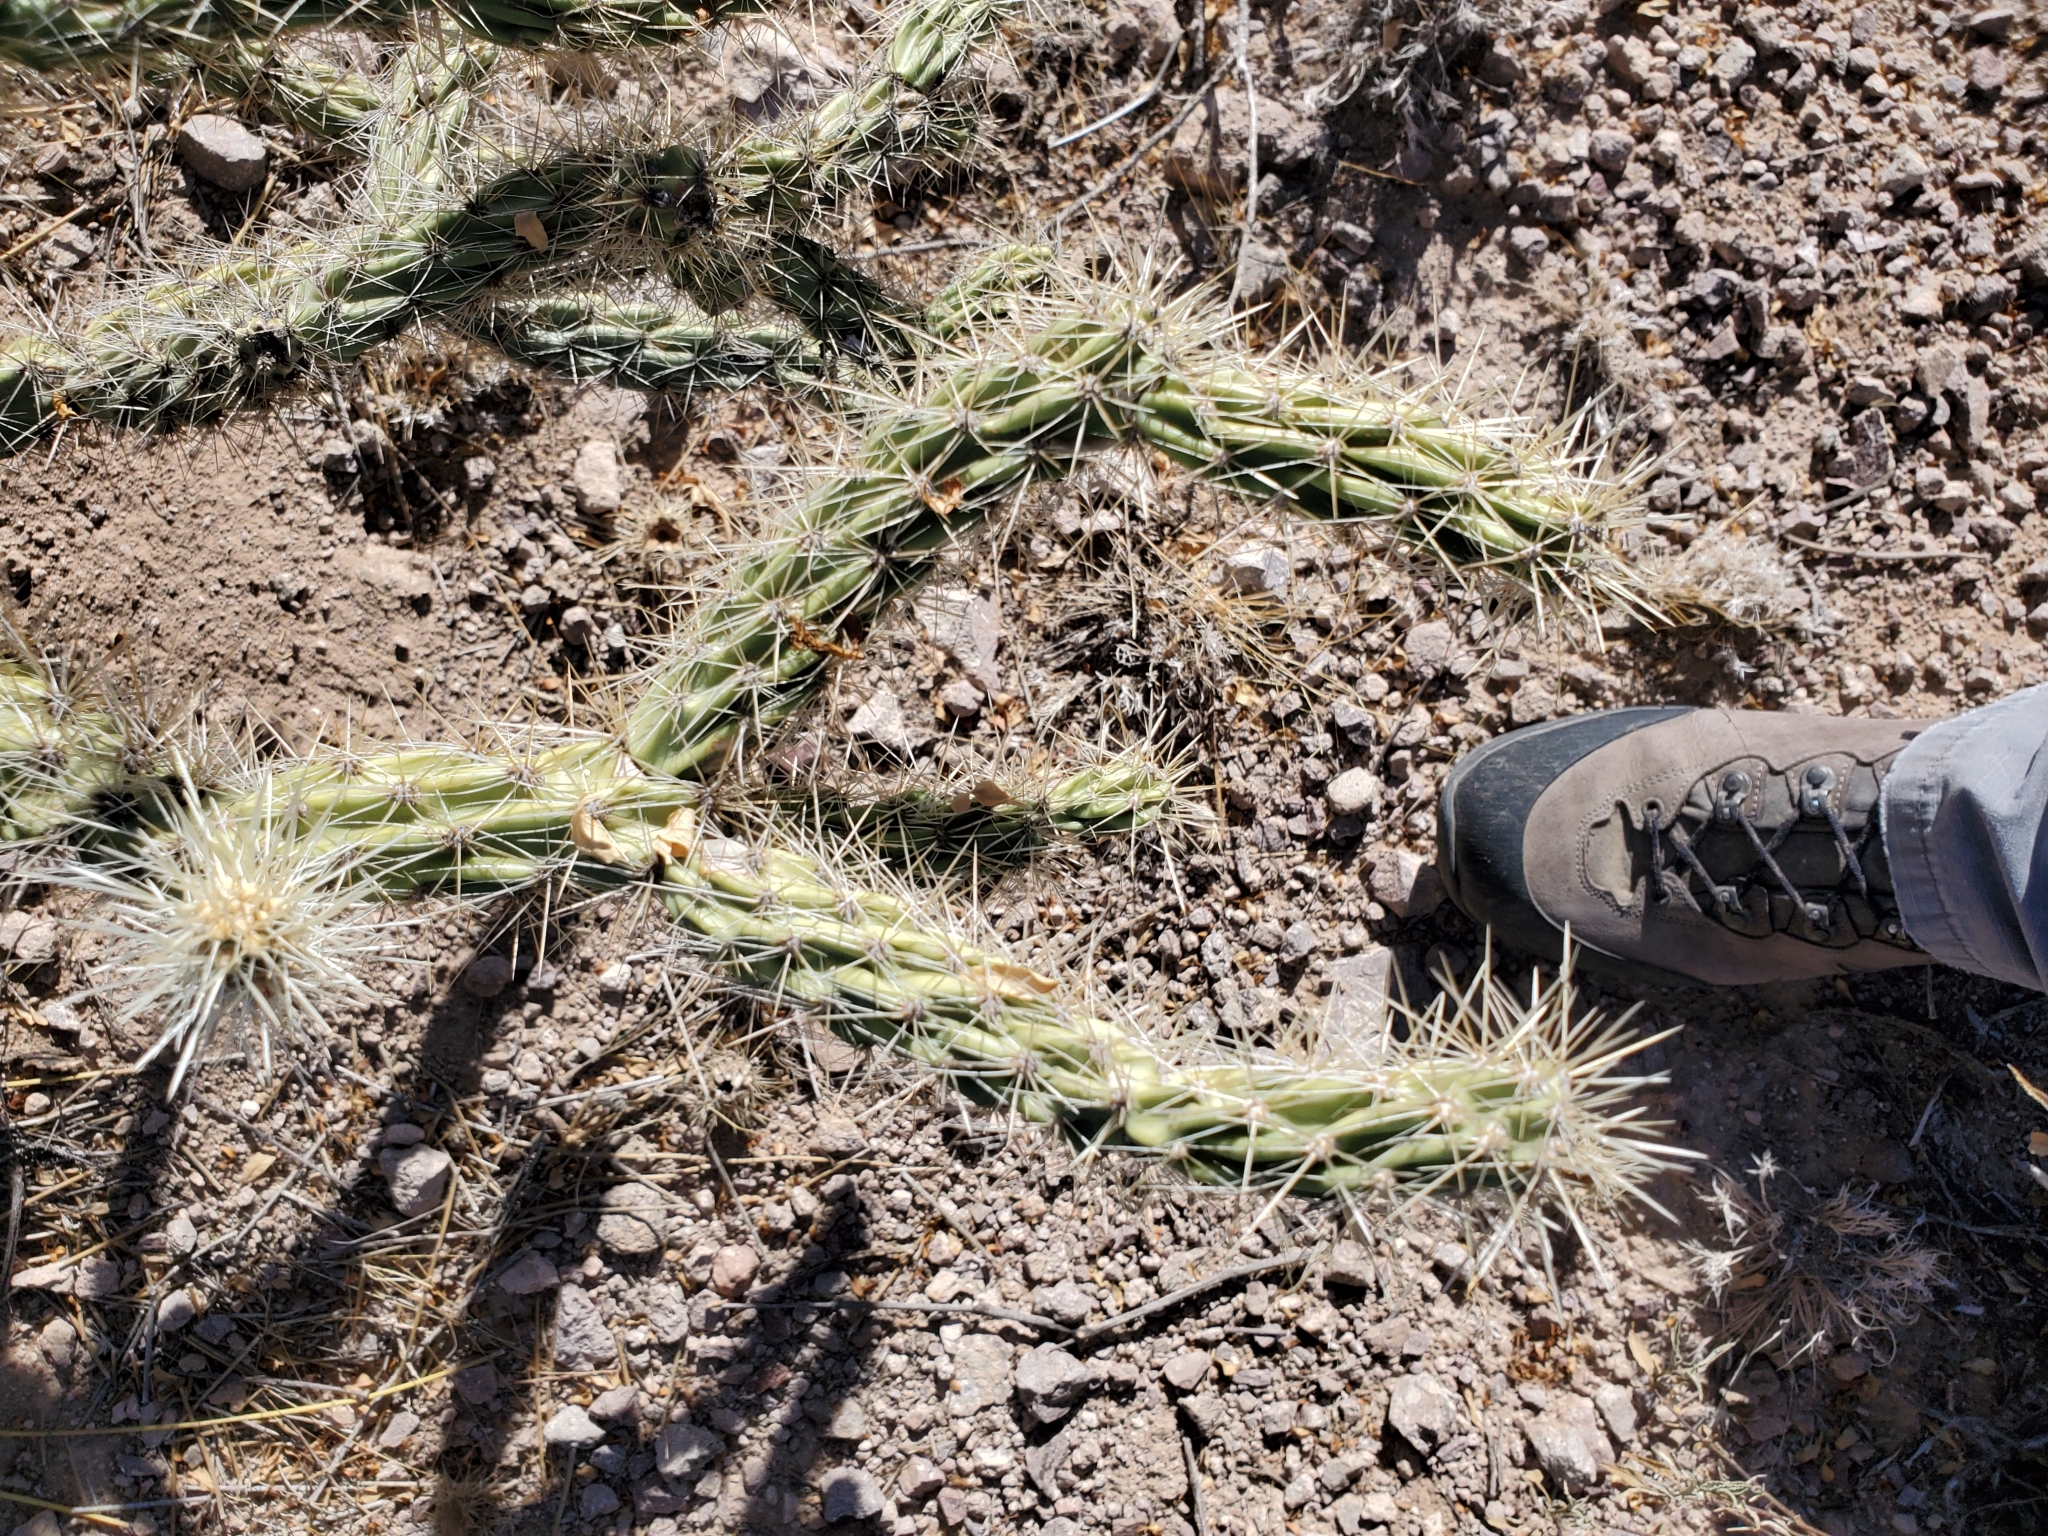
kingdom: Plantae
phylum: Tracheophyta
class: Magnoliopsida
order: Caryophyllales
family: Cactaceae
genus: Cylindropuntia
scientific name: Cylindropuntia acanthocarpa
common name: Buckhorn cholla
